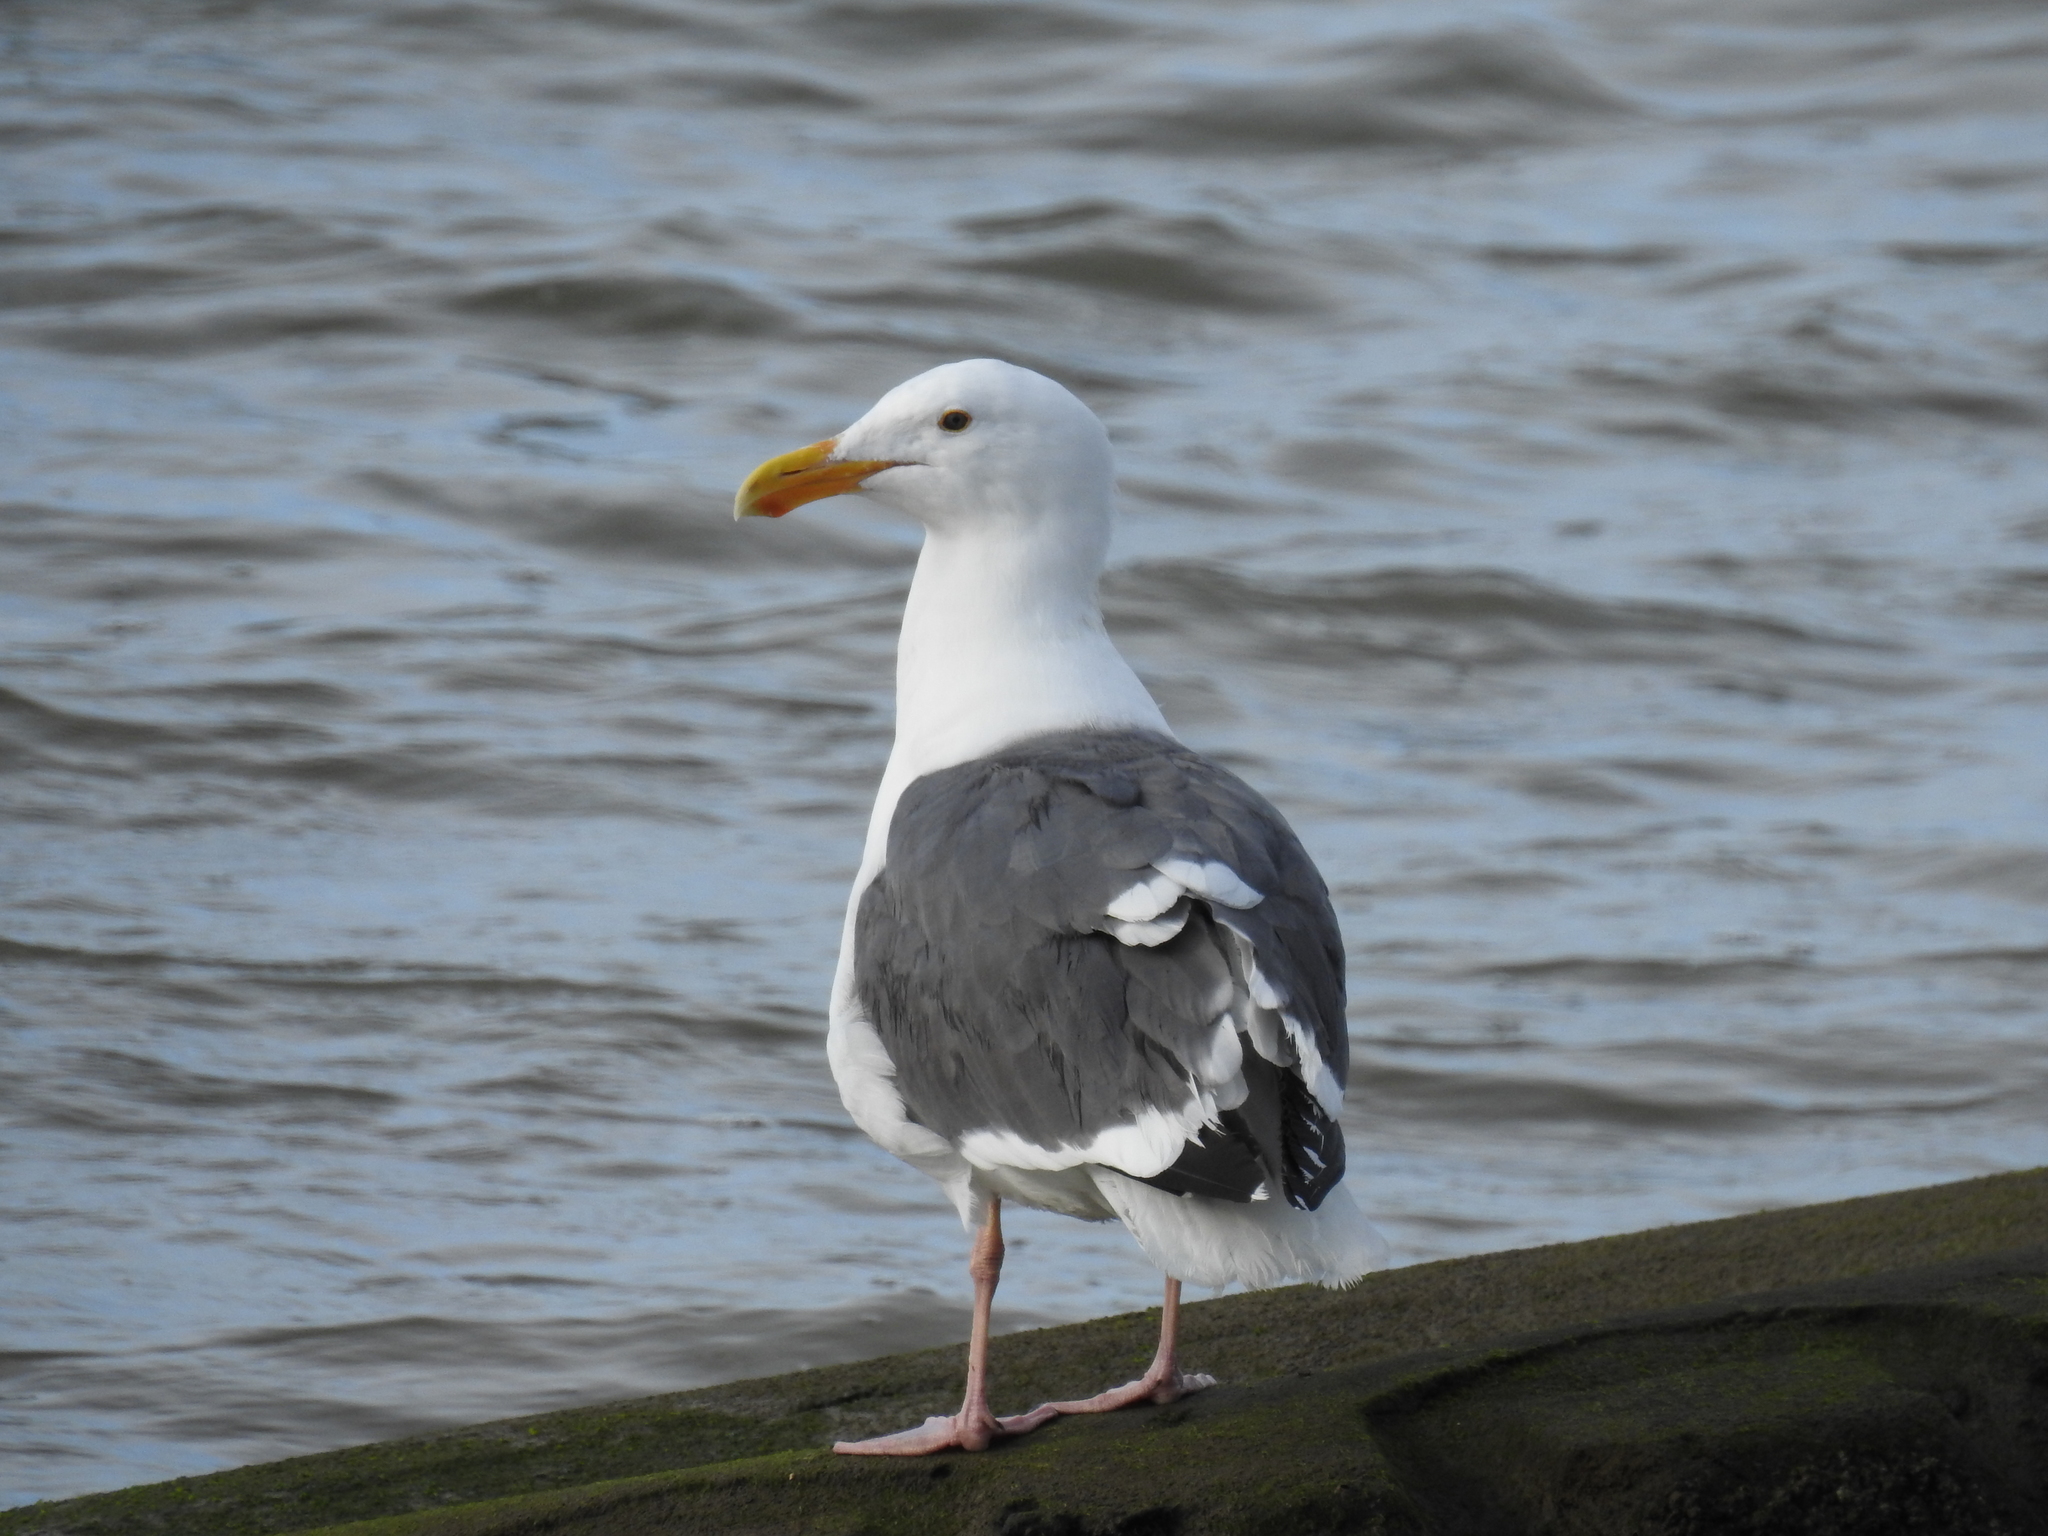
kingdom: Animalia
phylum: Chordata
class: Aves
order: Charadriiformes
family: Laridae
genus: Larus
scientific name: Larus occidentalis
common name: Western gull
